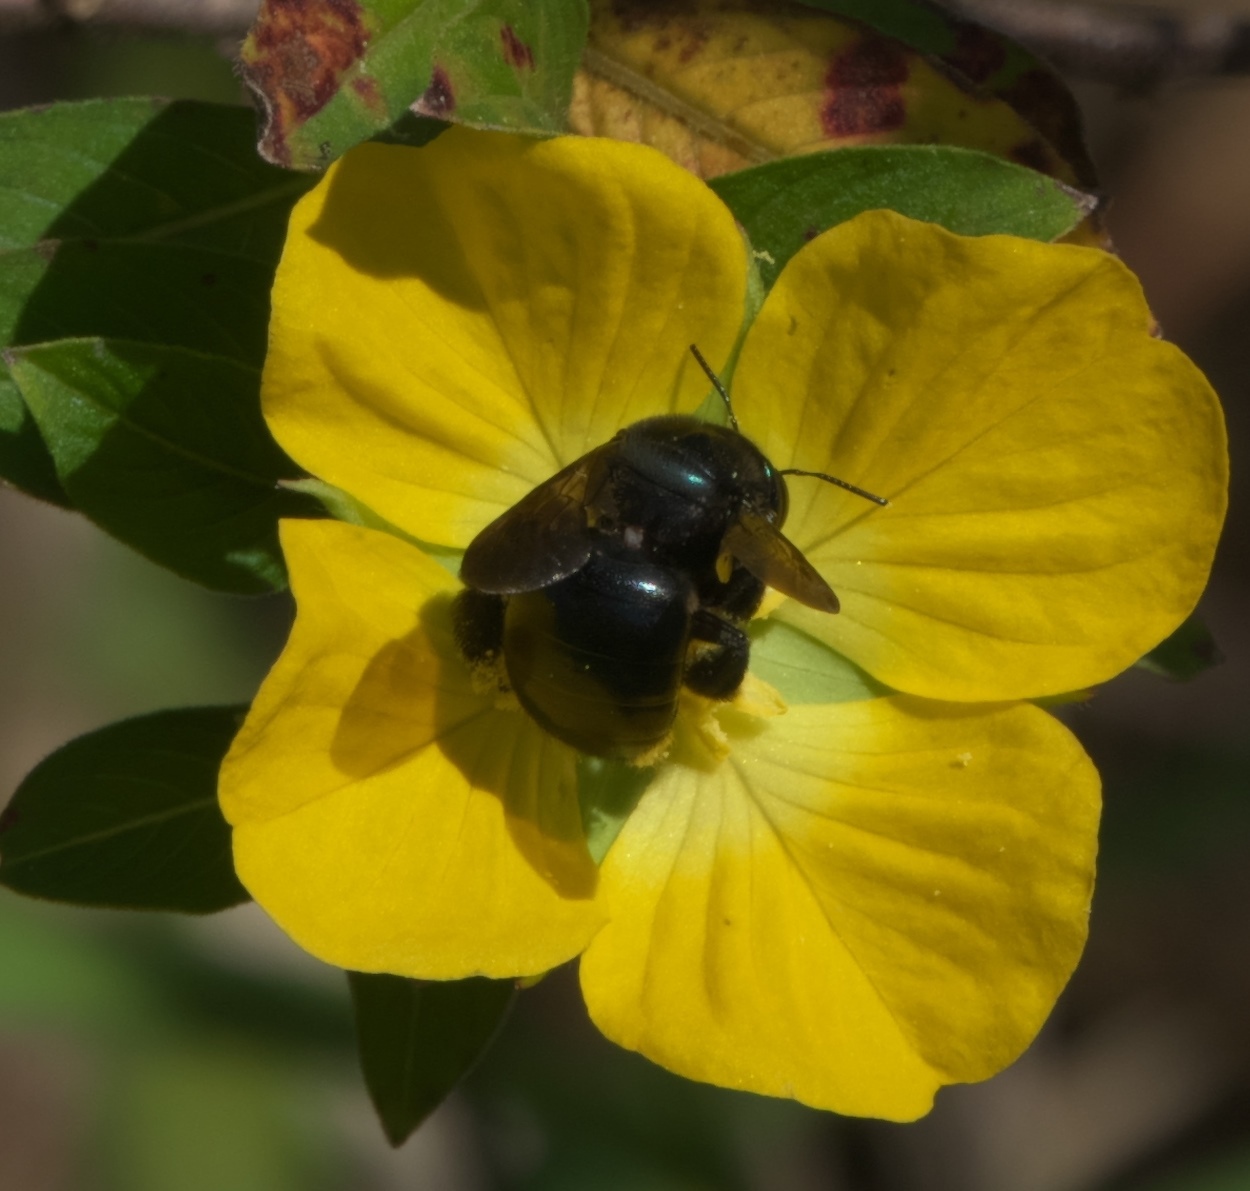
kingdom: Animalia
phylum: Arthropoda
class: Insecta
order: Hymenoptera
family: Apidae
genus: Xylocopa
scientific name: Xylocopa micans
